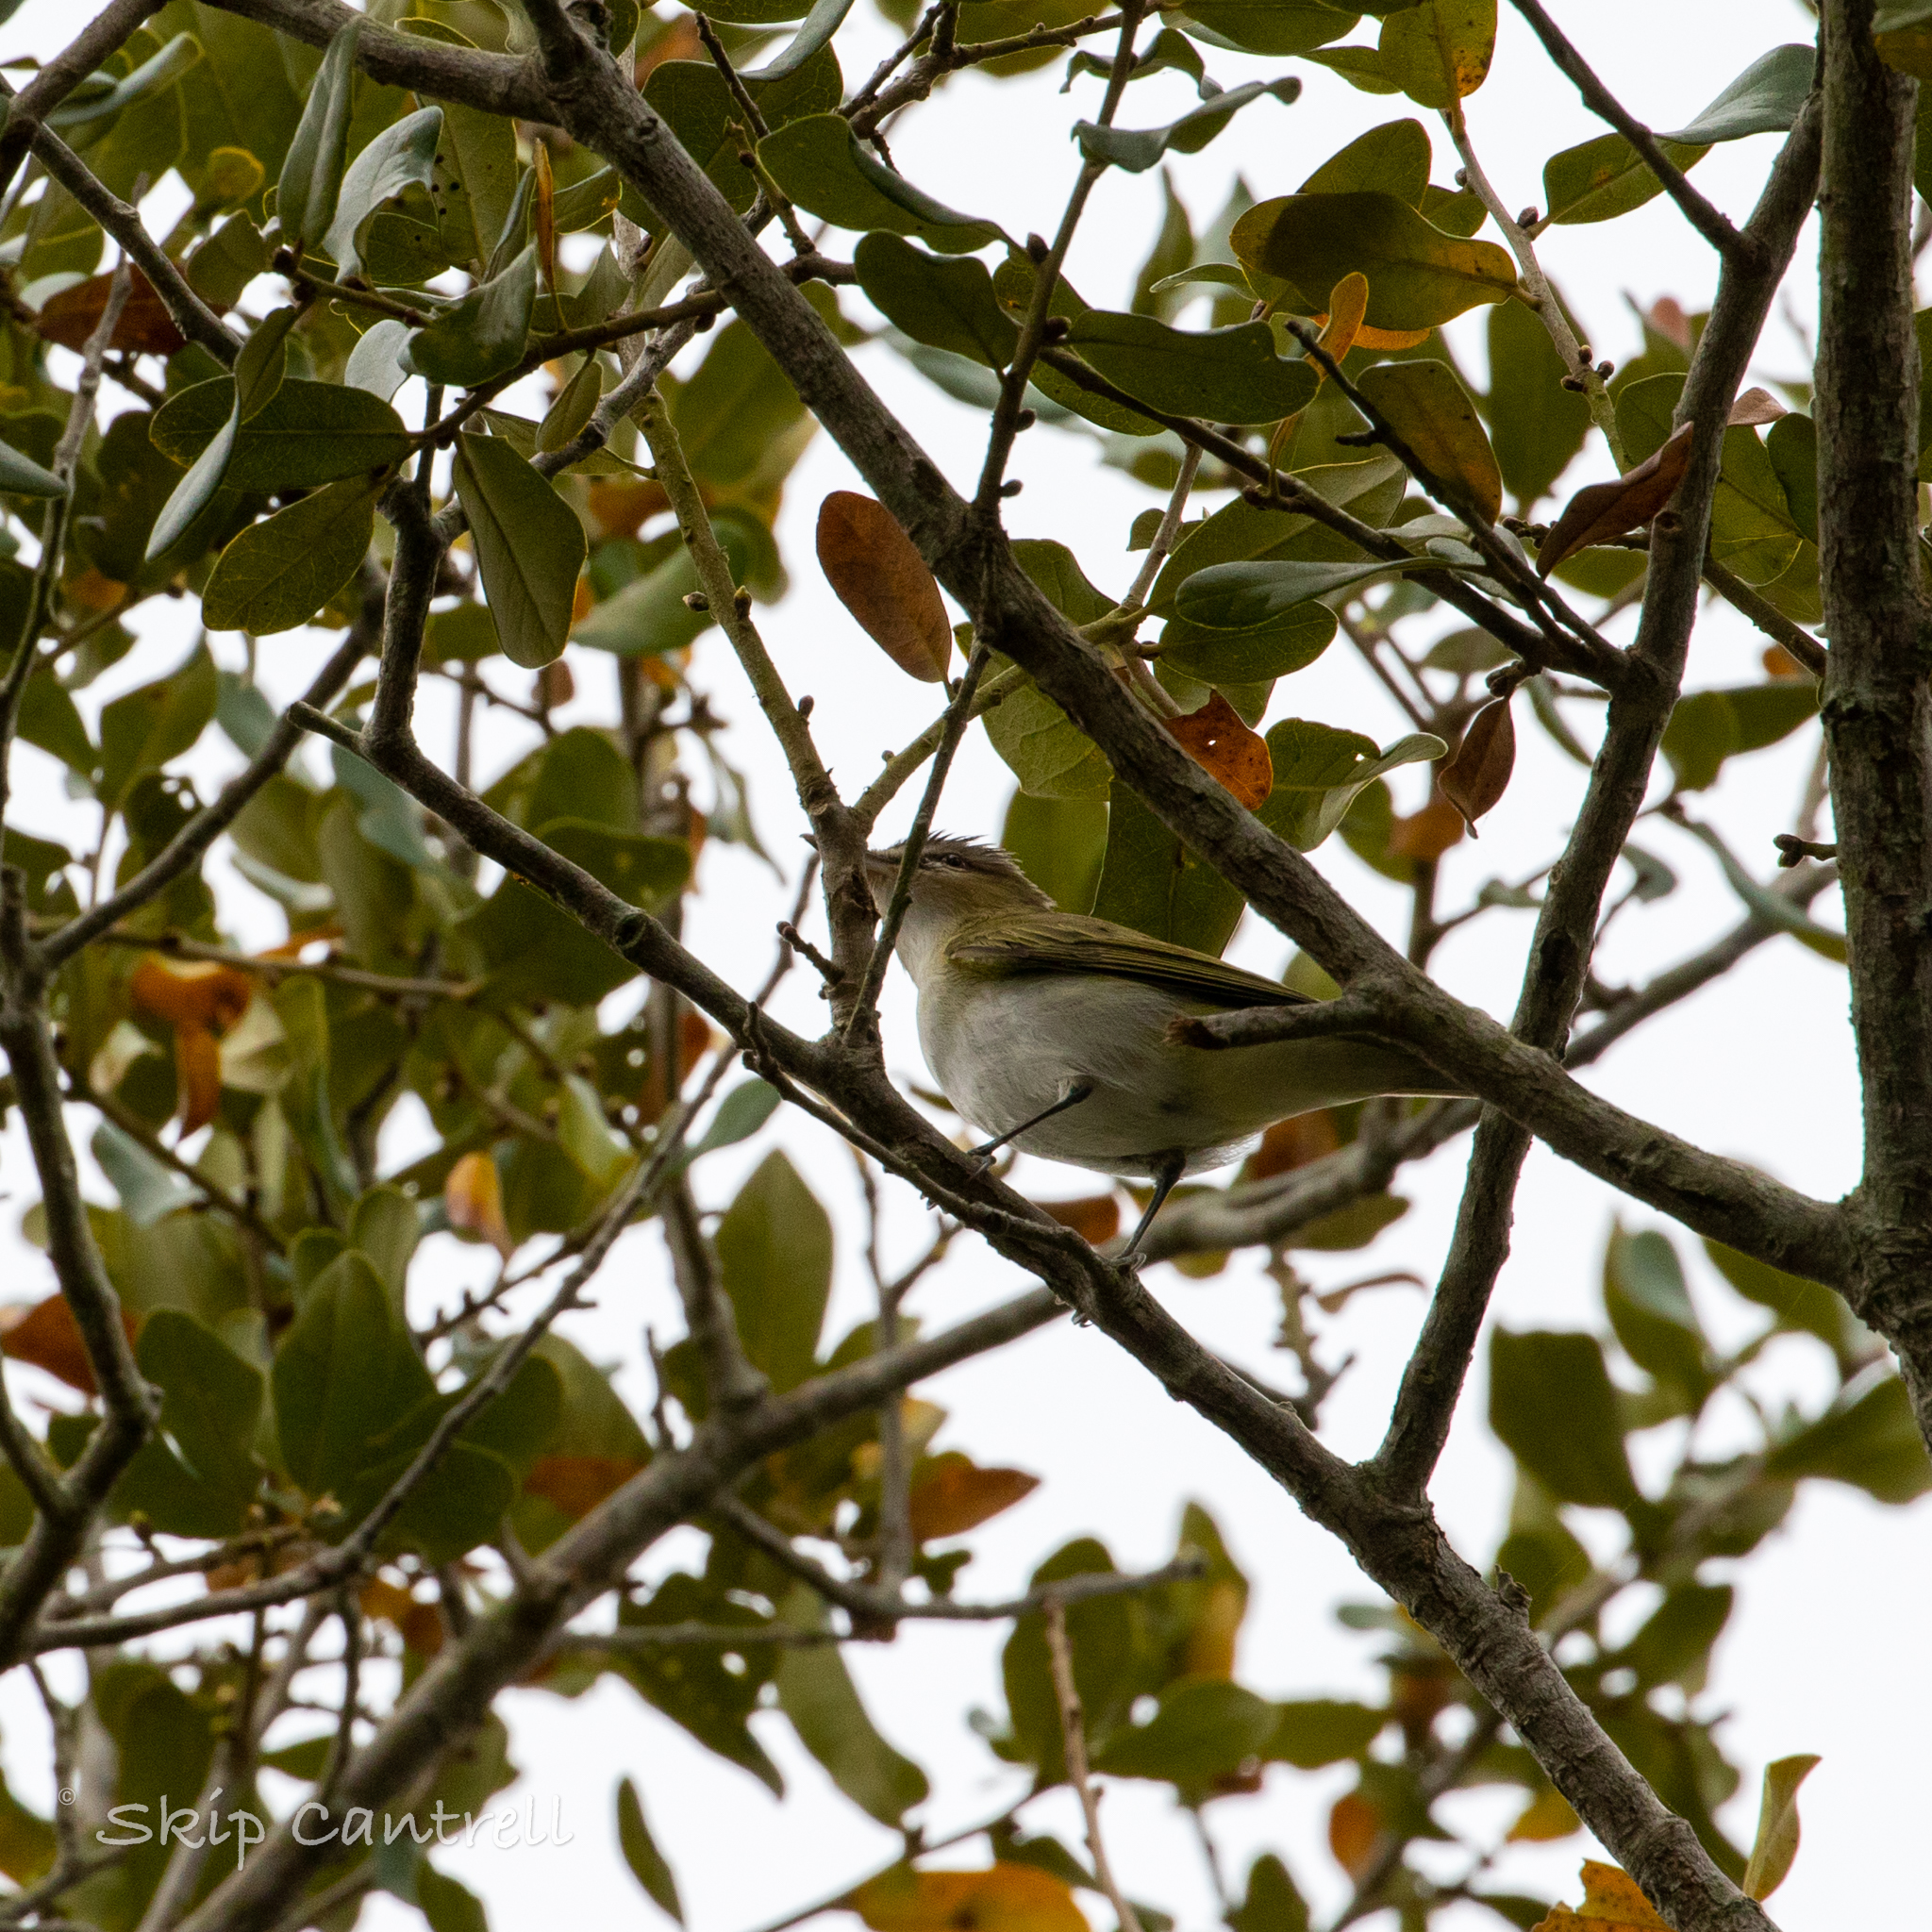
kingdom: Animalia
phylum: Chordata
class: Aves
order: Passeriformes
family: Vireonidae
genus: Vireo
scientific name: Vireo olivaceus
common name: Red-eyed vireo
